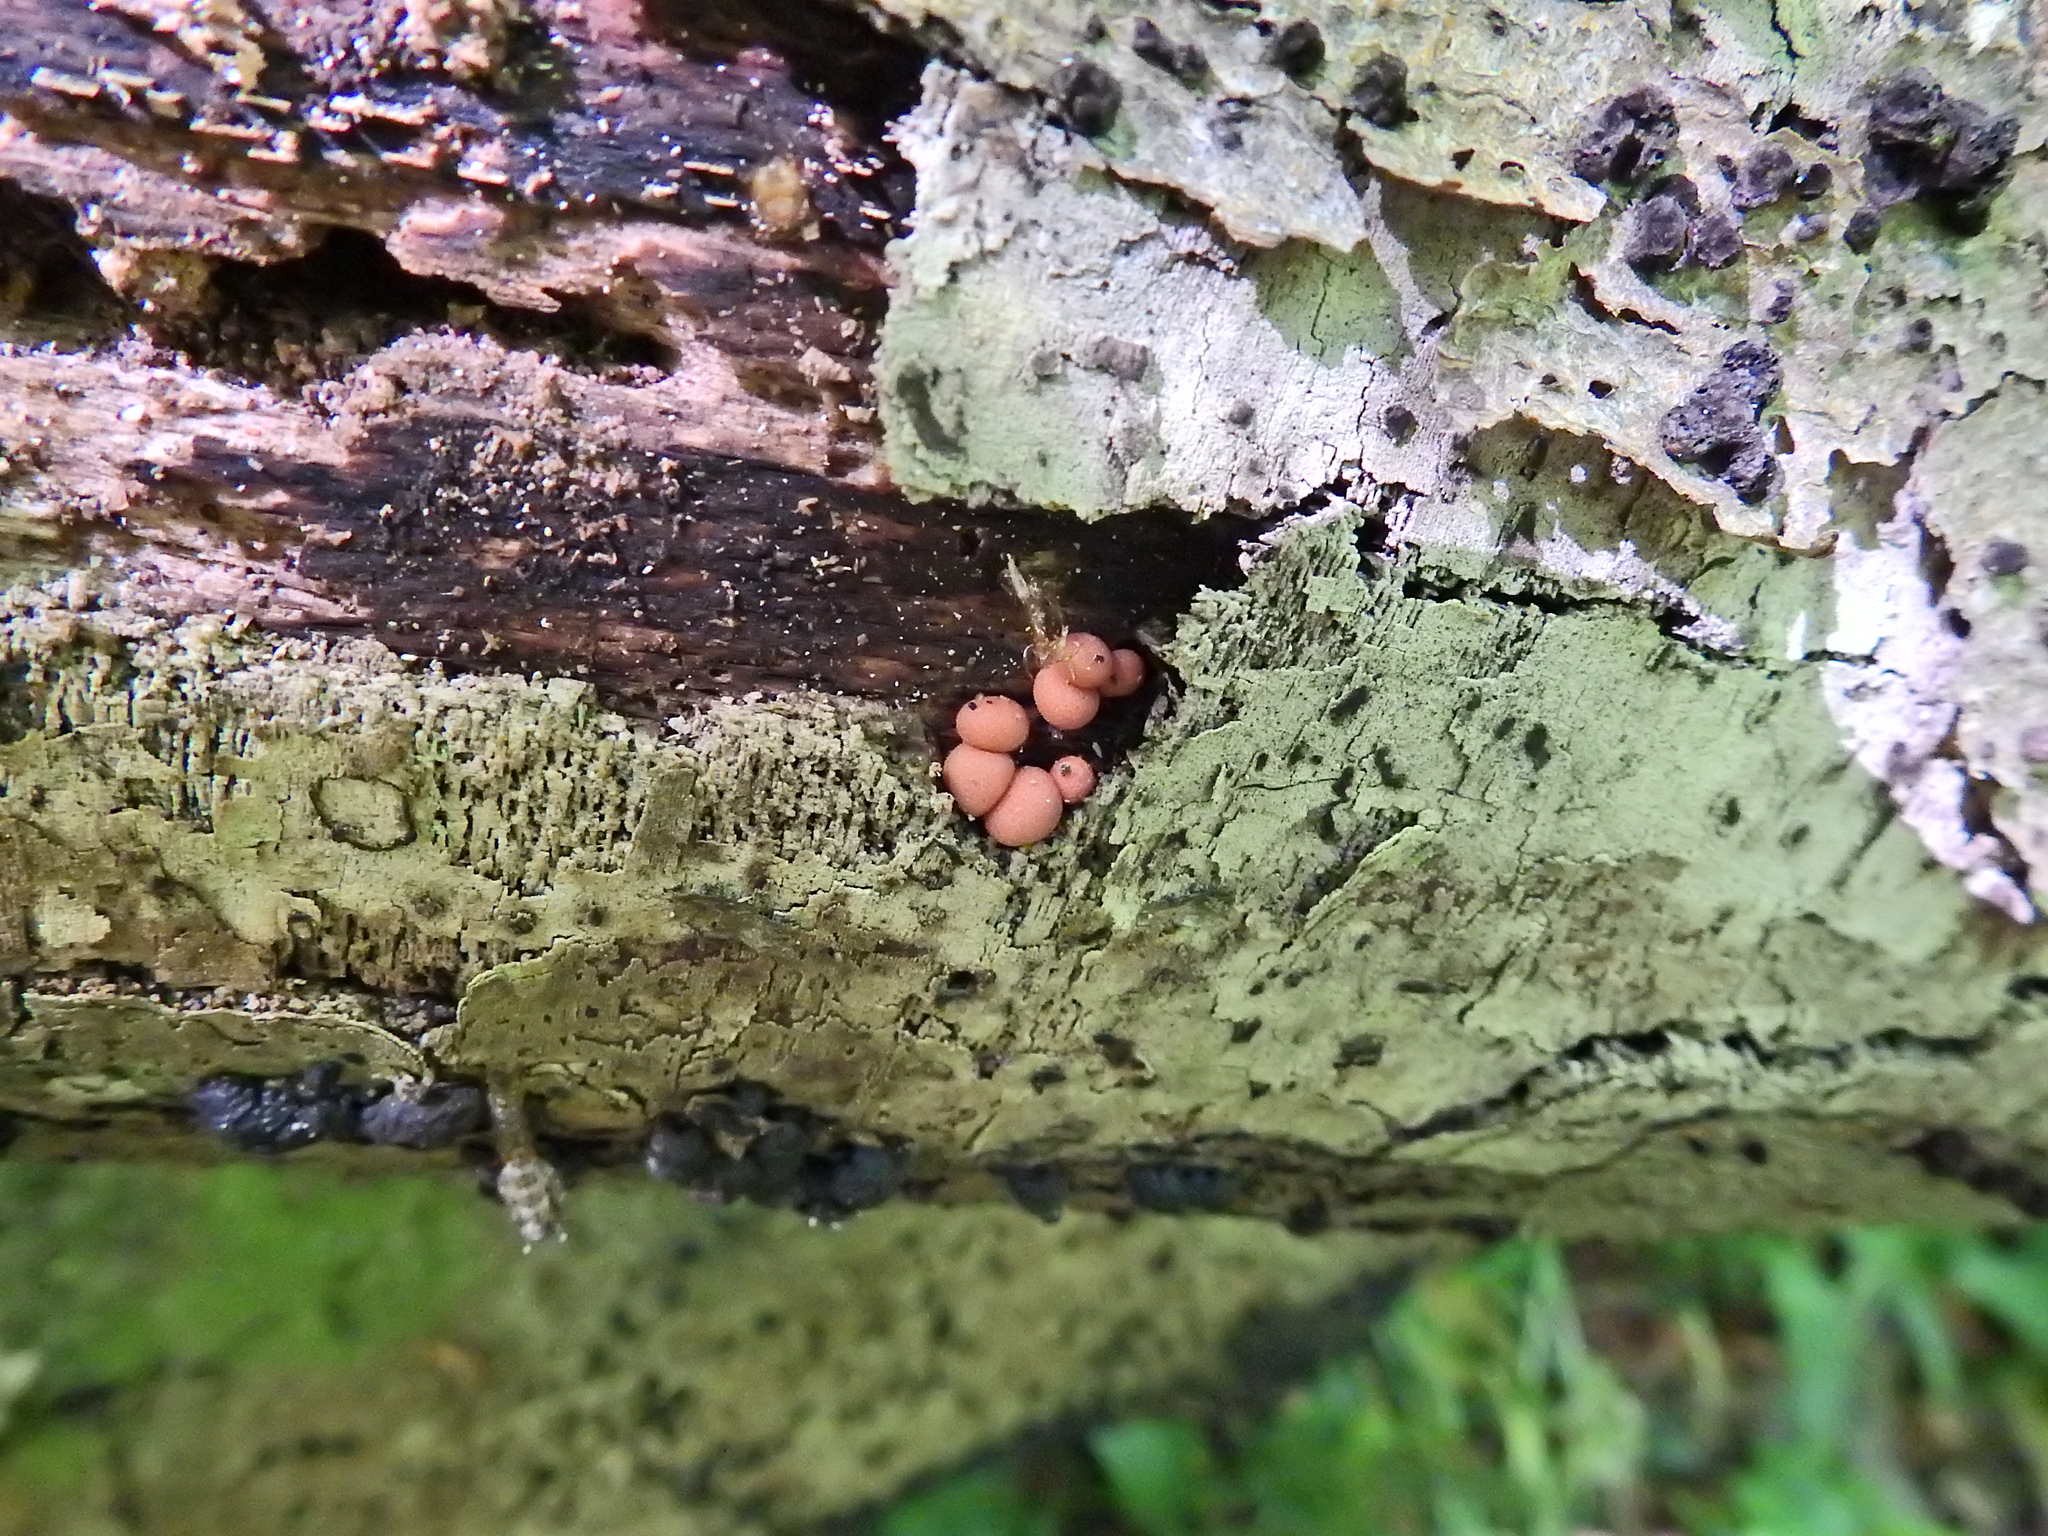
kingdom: Protozoa
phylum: Mycetozoa
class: Myxomycetes
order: Cribrariales
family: Tubiferaceae
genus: Lycogala
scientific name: Lycogala epidendrum
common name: Wolf's milk
